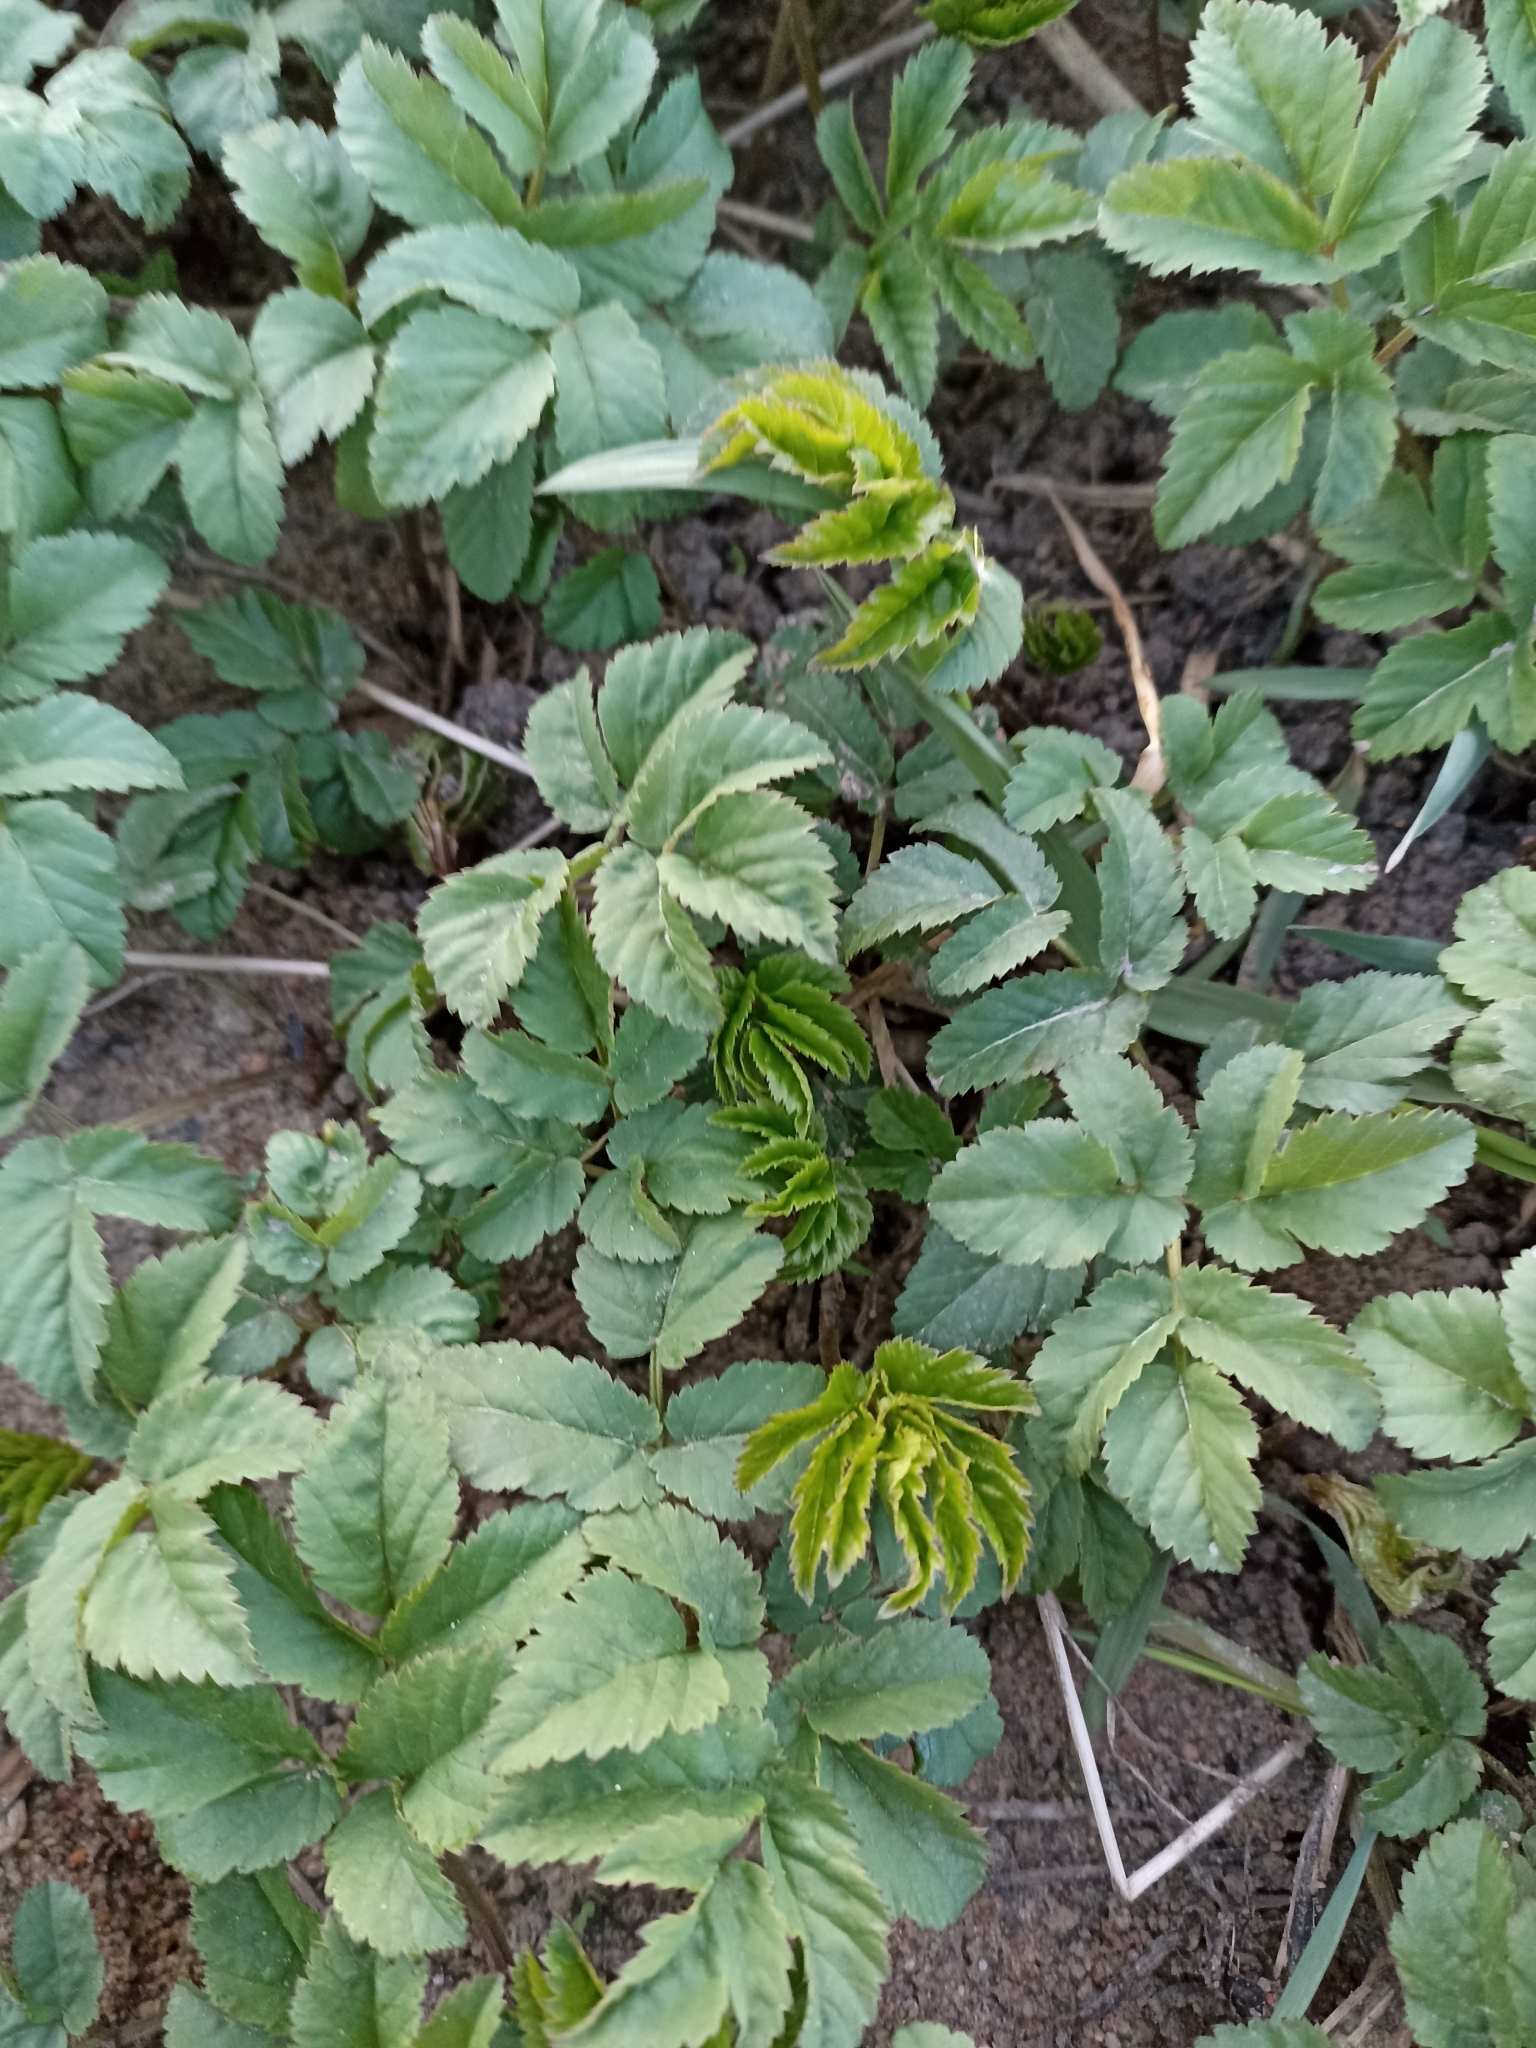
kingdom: Plantae
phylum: Tracheophyta
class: Magnoliopsida
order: Apiales
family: Apiaceae
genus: Aegopodium
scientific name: Aegopodium podagraria
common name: Ground-elder
